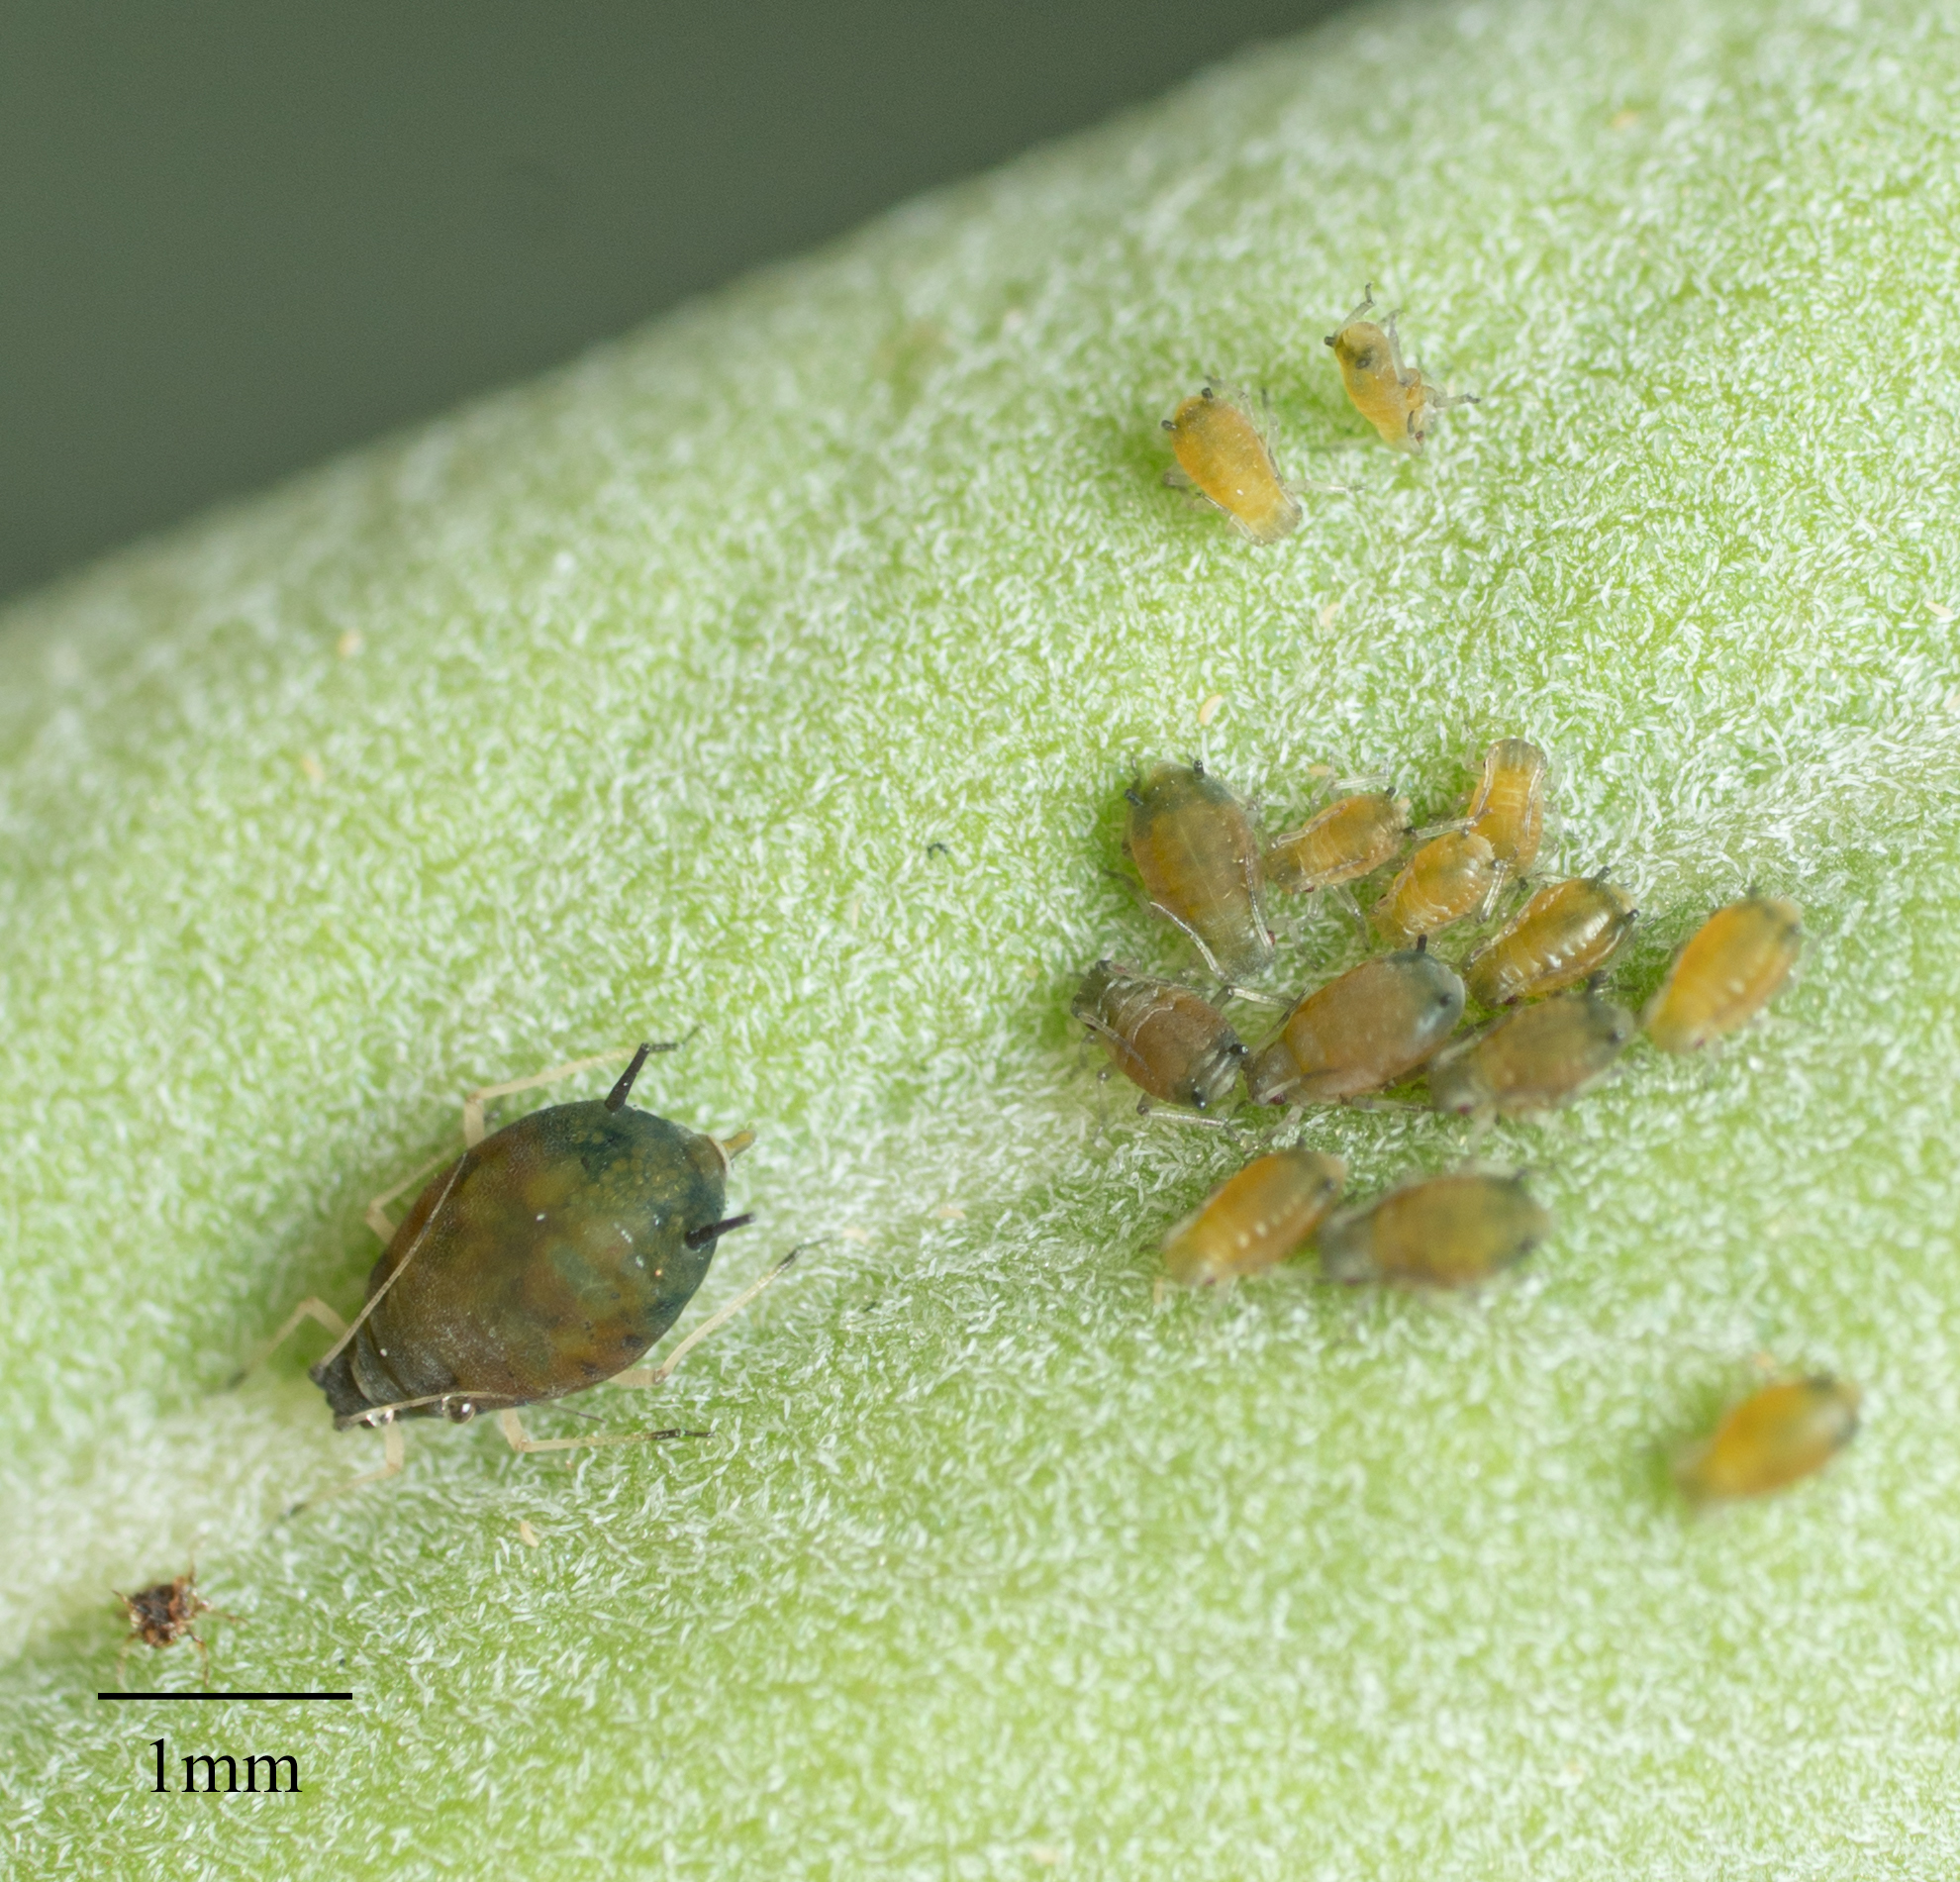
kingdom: Animalia
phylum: Arthropoda
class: Insecta
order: Hemiptera
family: Aphididae
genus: Aphis
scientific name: Aphis gossypii
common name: Melon aphid
